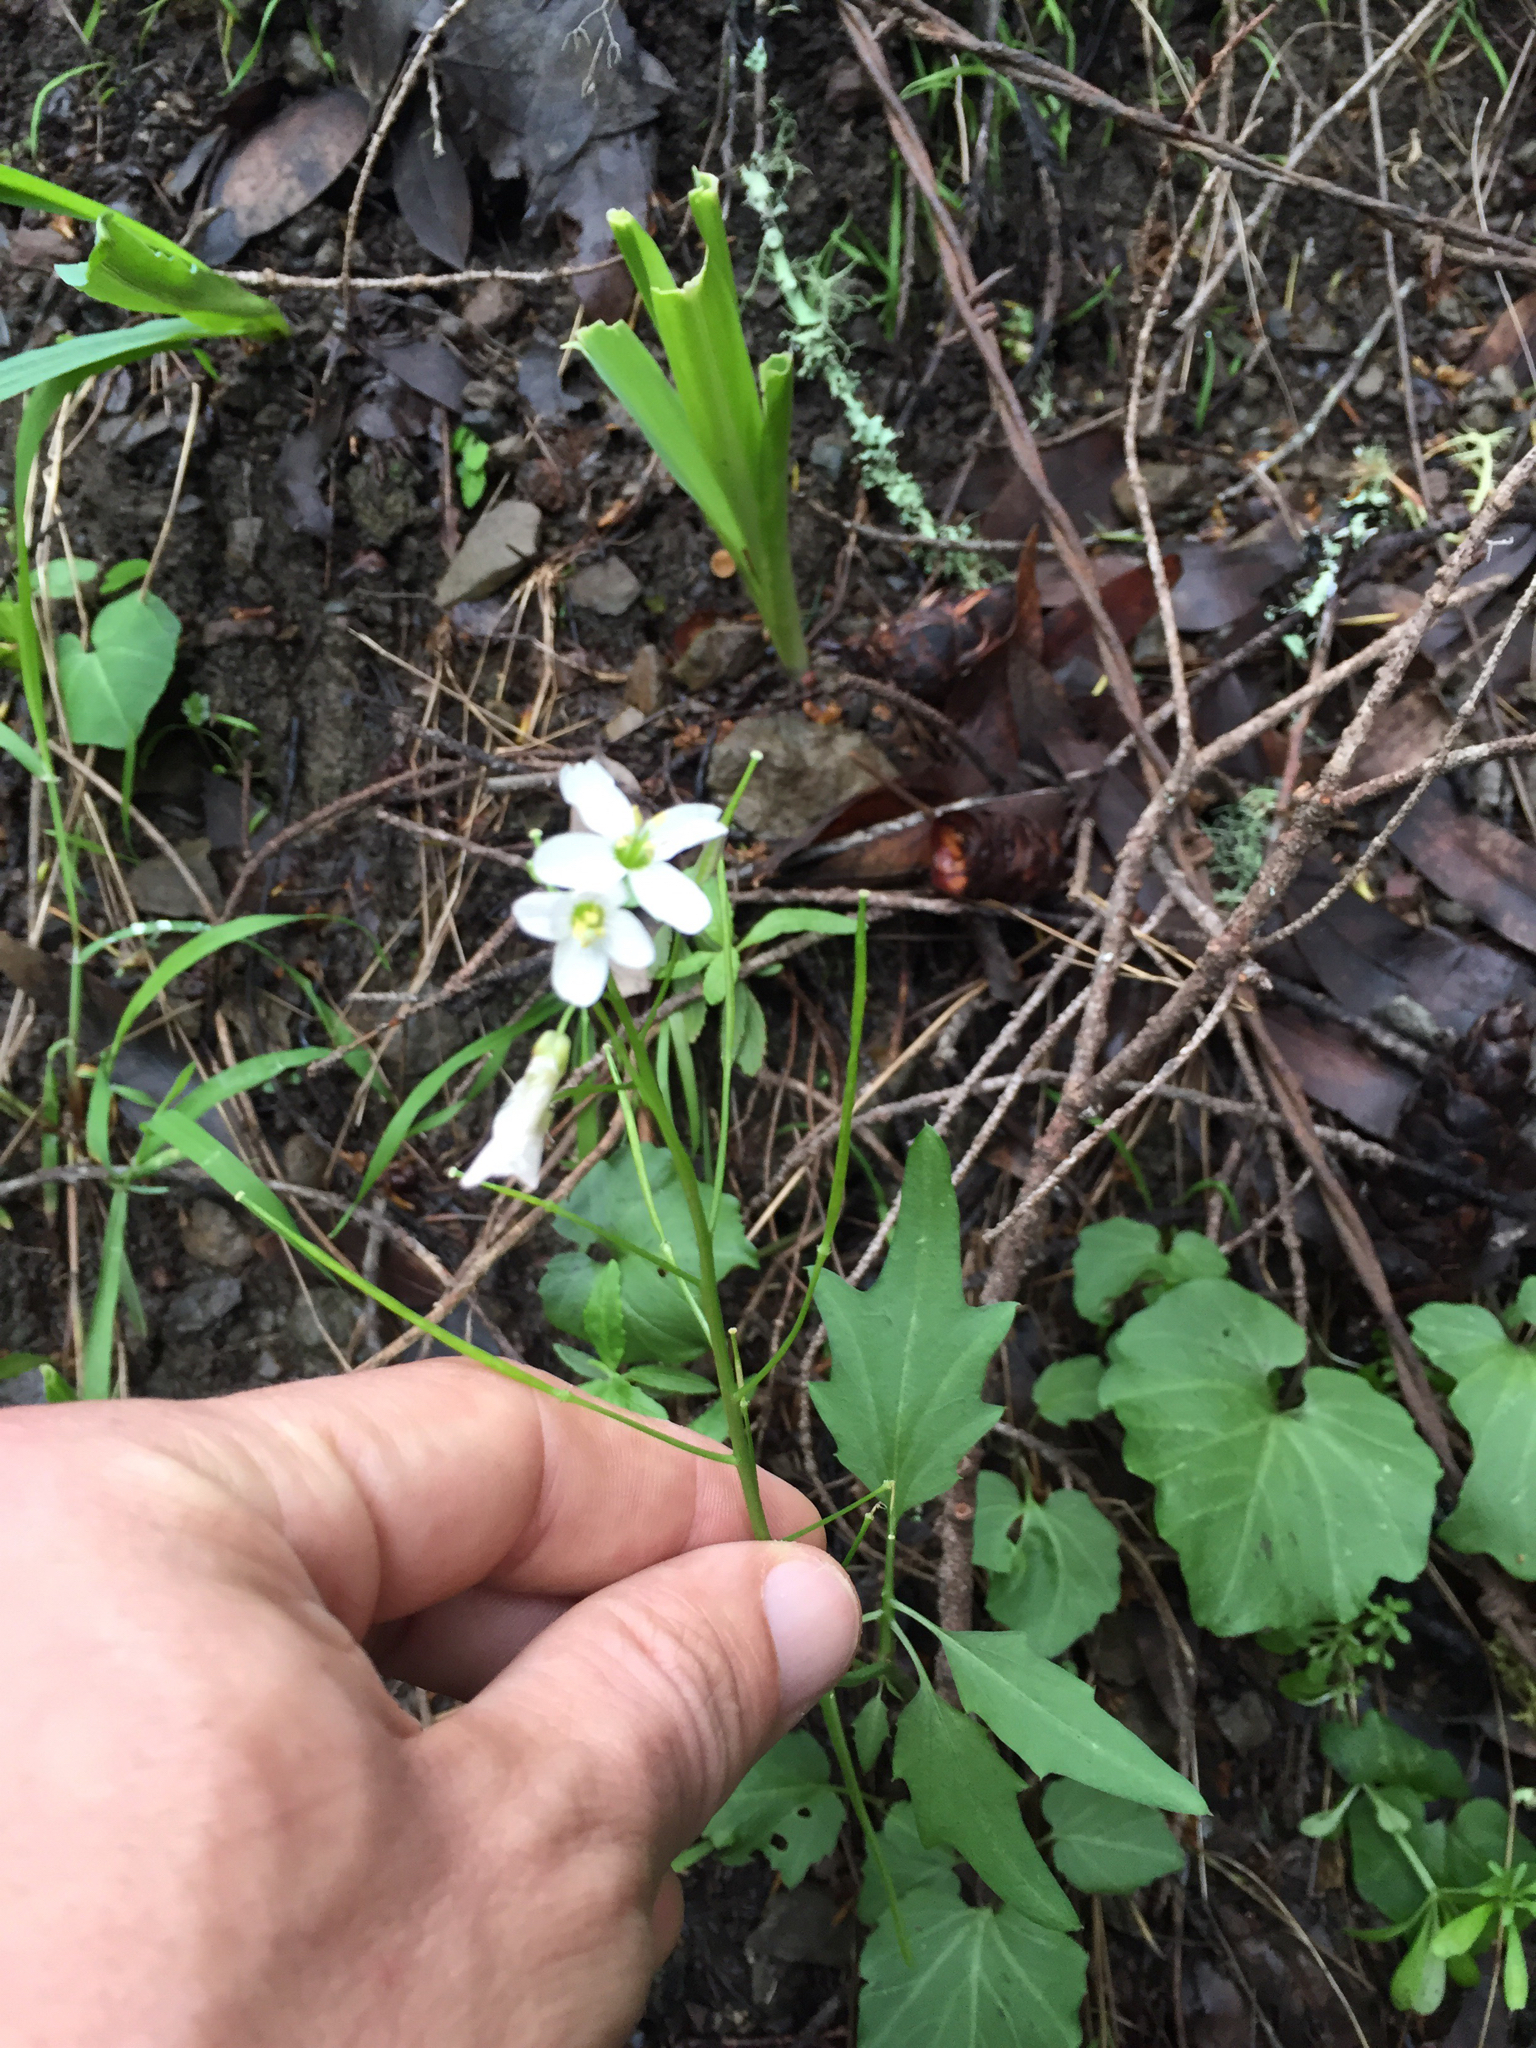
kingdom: Plantae
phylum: Tracheophyta
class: Magnoliopsida
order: Brassicales
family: Brassicaceae
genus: Cardamine
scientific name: Cardamine californica
